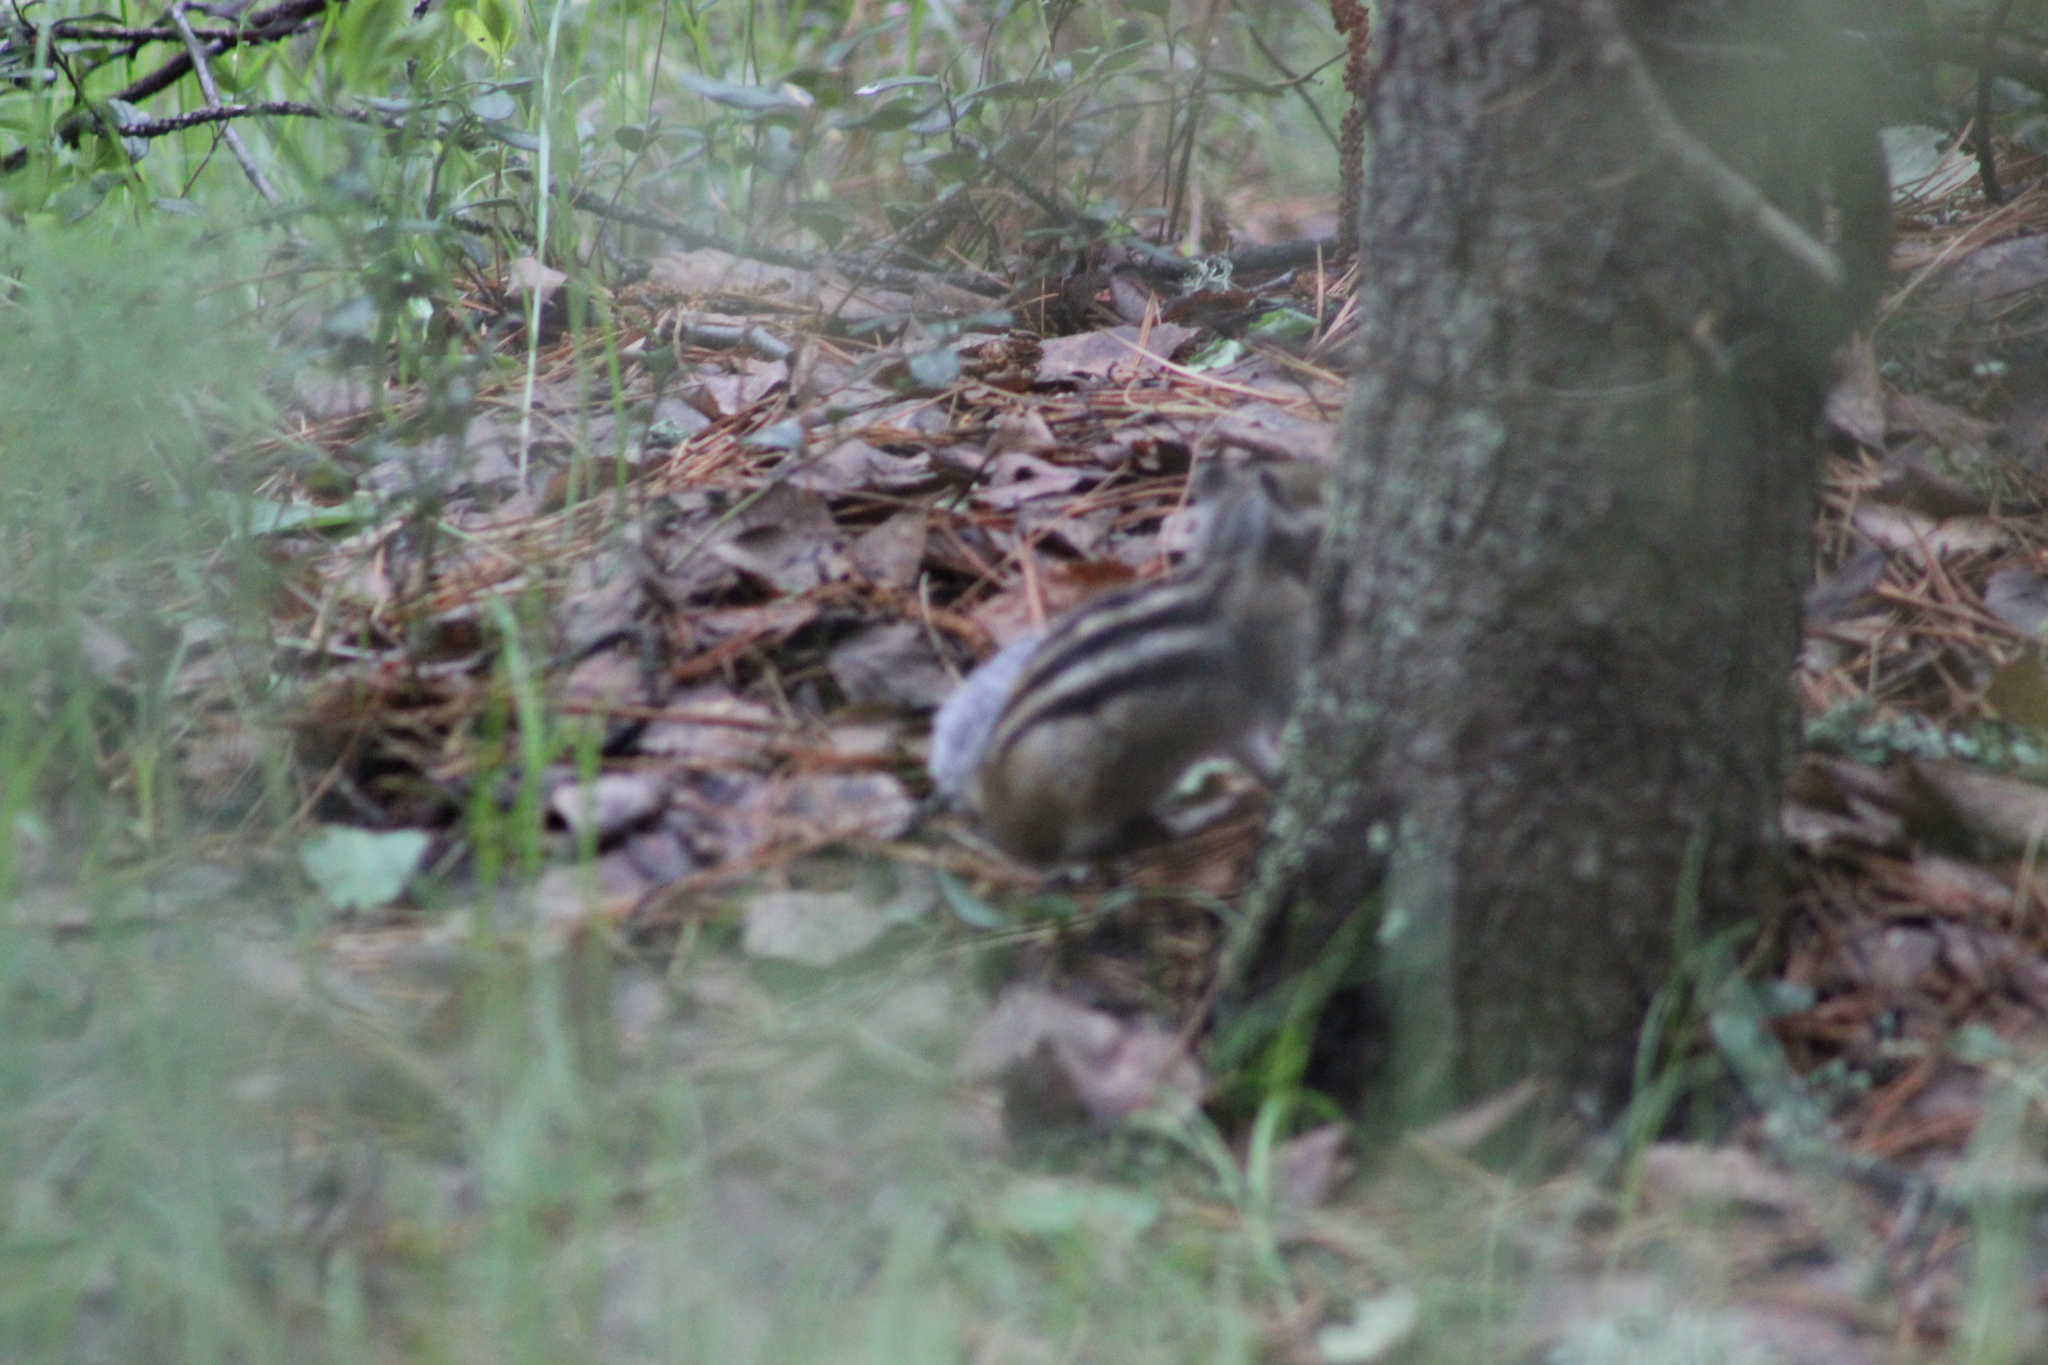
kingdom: Animalia
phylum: Chordata
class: Mammalia
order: Rodentia
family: Sciuridae
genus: Tamias
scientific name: Tamias sibiricus
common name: Siberian chipmunk
